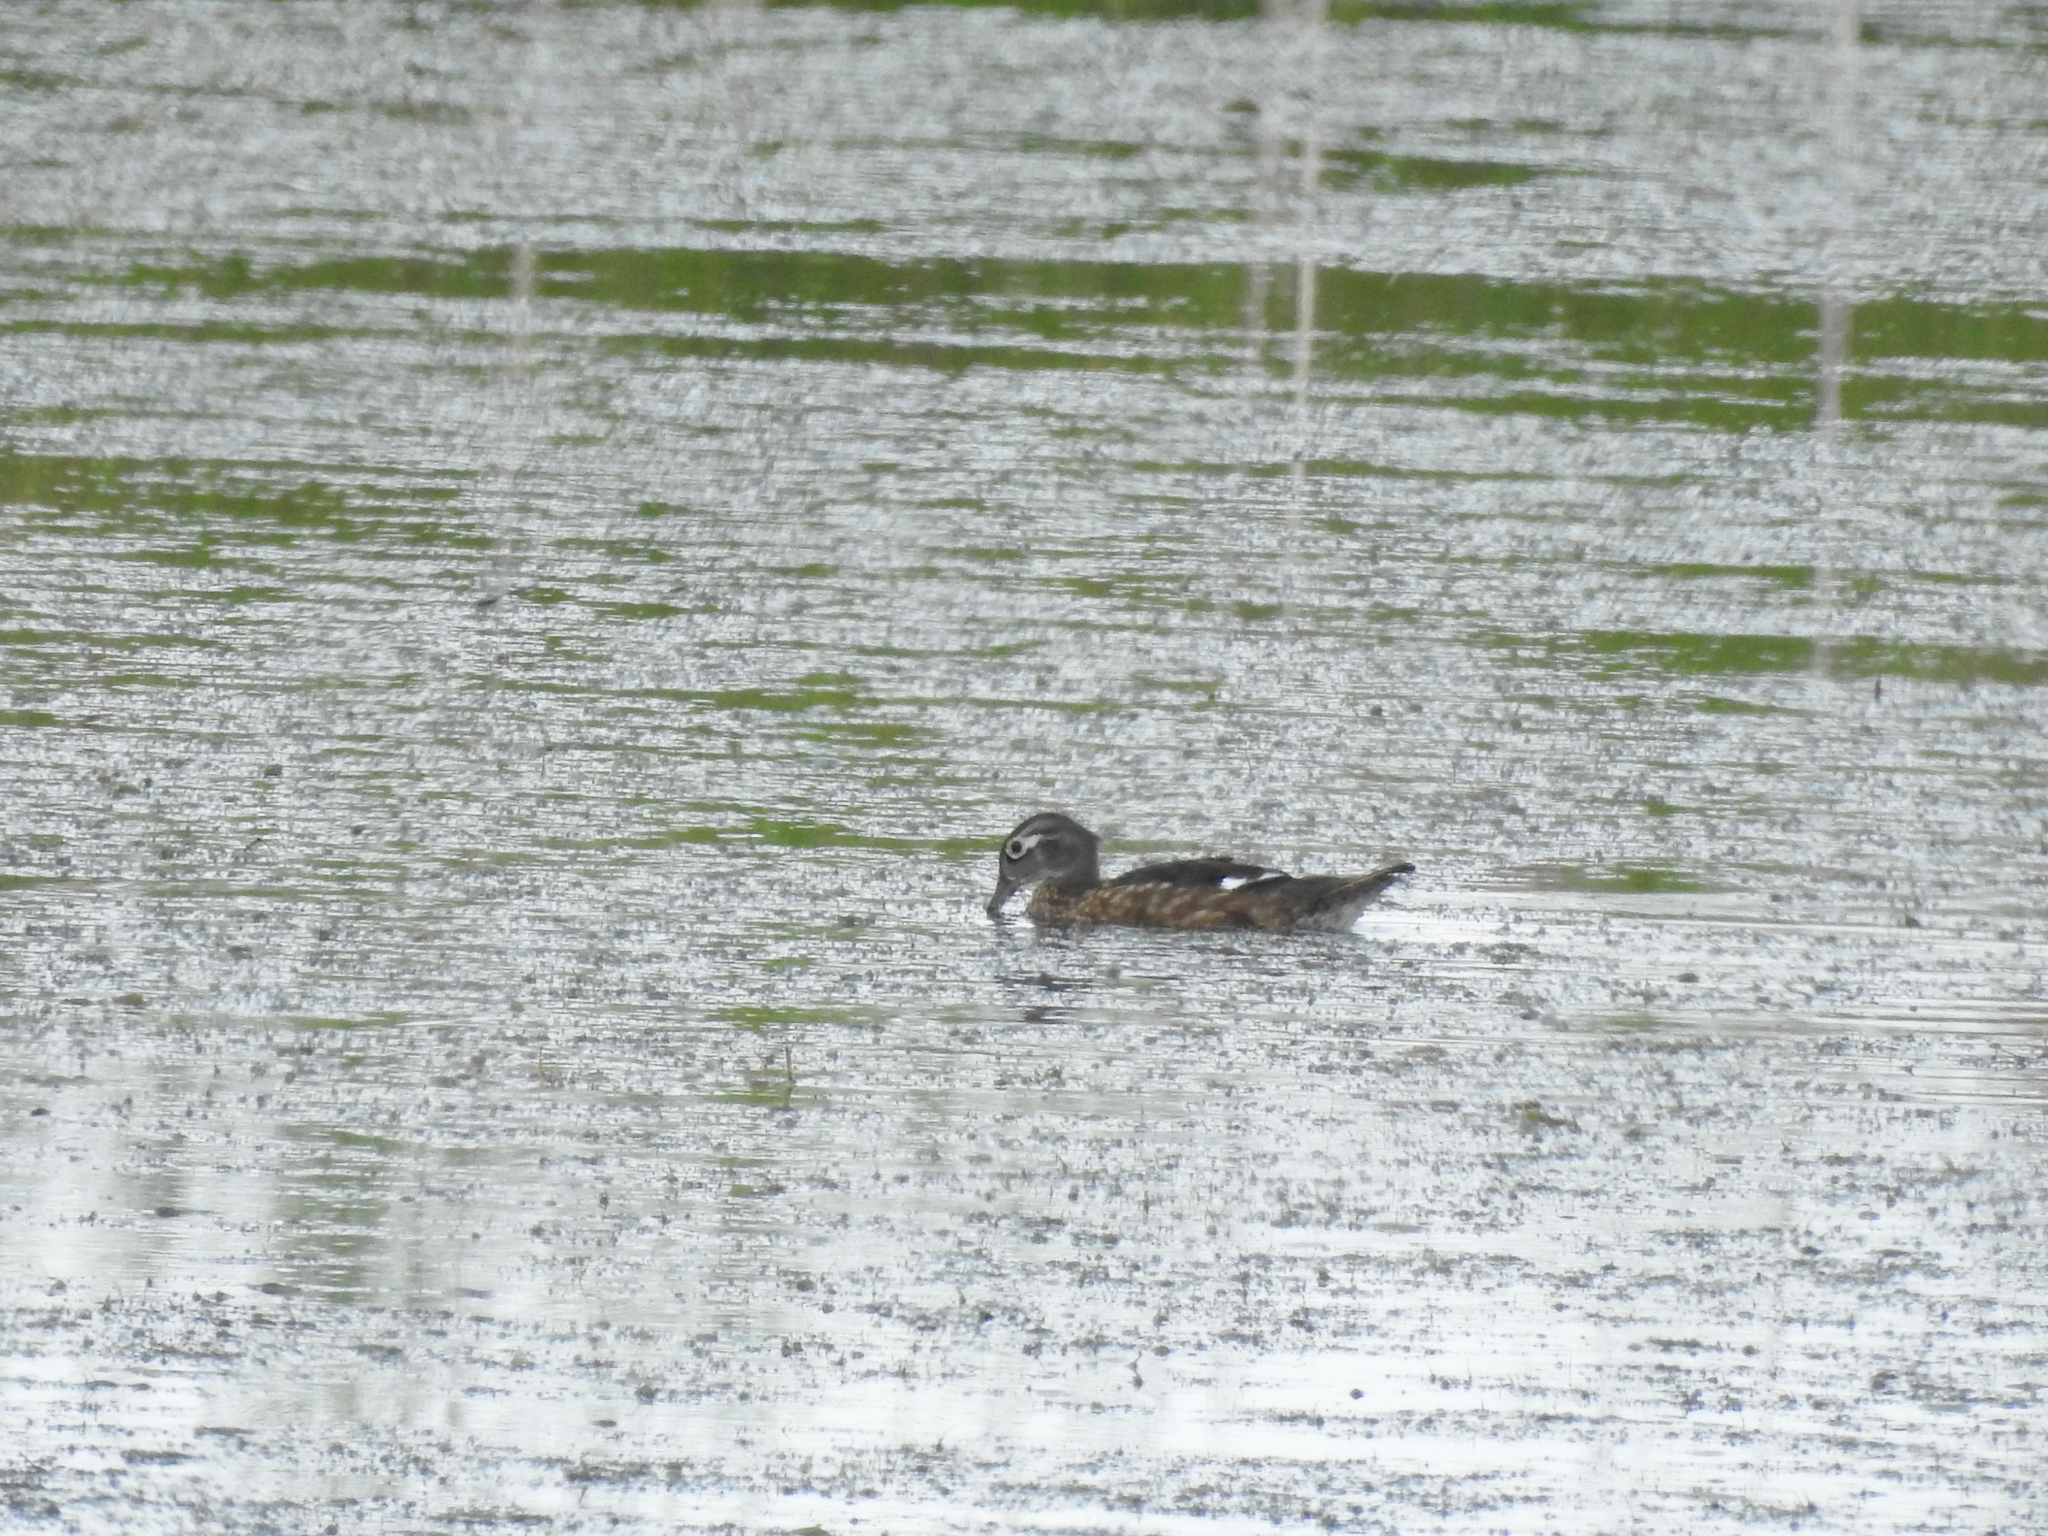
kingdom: Animalia
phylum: Chordata
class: Aves
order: Anseriformes
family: Anatidae
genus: Aix
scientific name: Aix sponsa
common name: Wood duck
